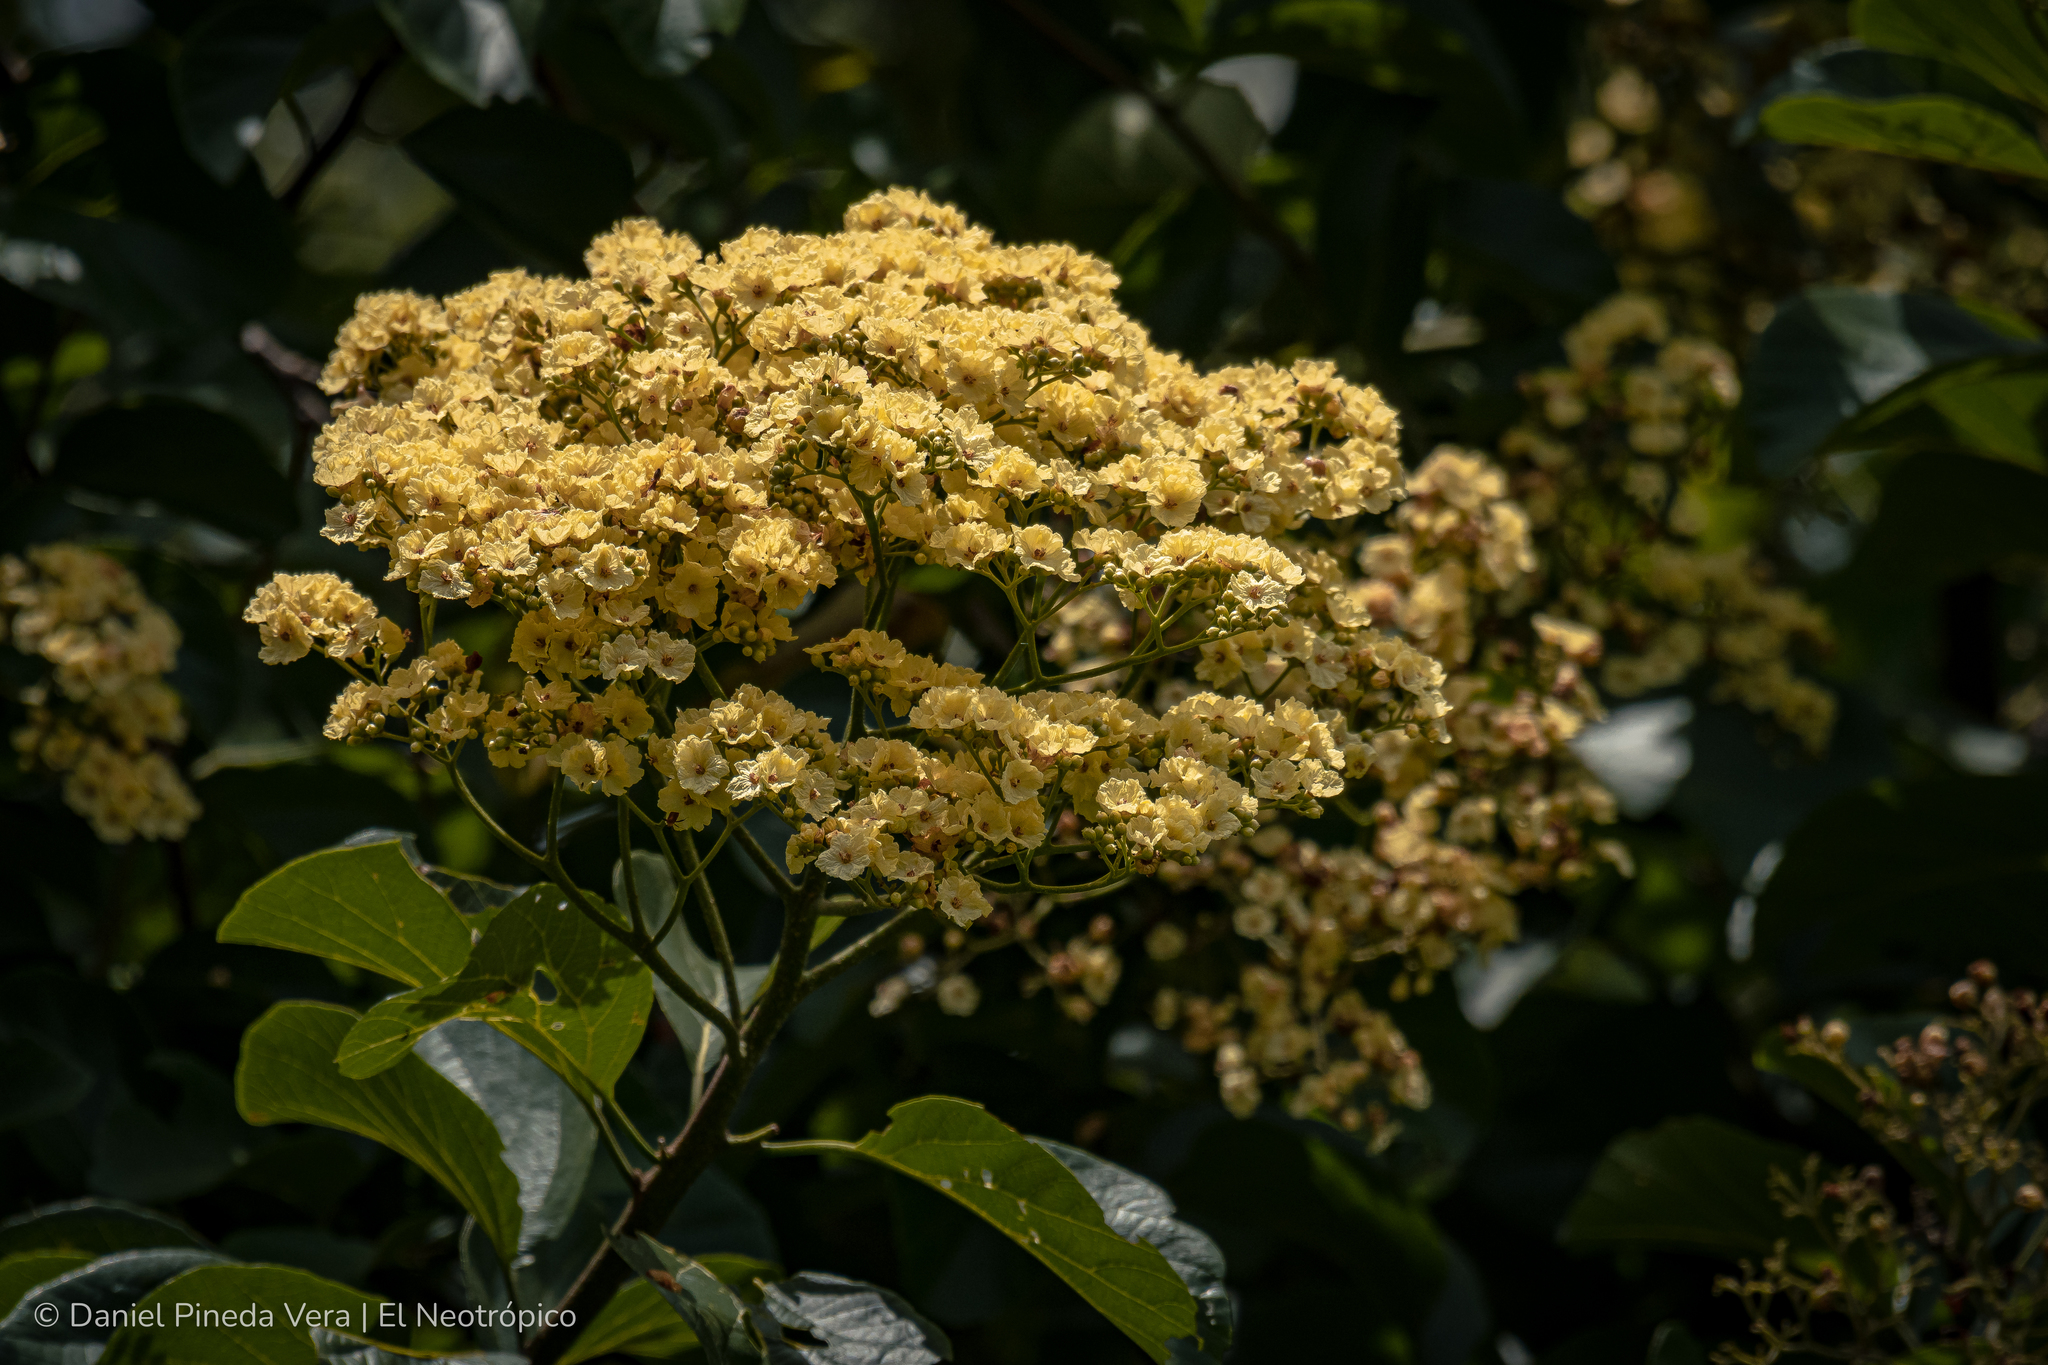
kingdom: Plantae
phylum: Tracheophyta
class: Magnoliopsida
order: Boraginales
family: Cordiaceae
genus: Cordia
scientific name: Cordia dentata
